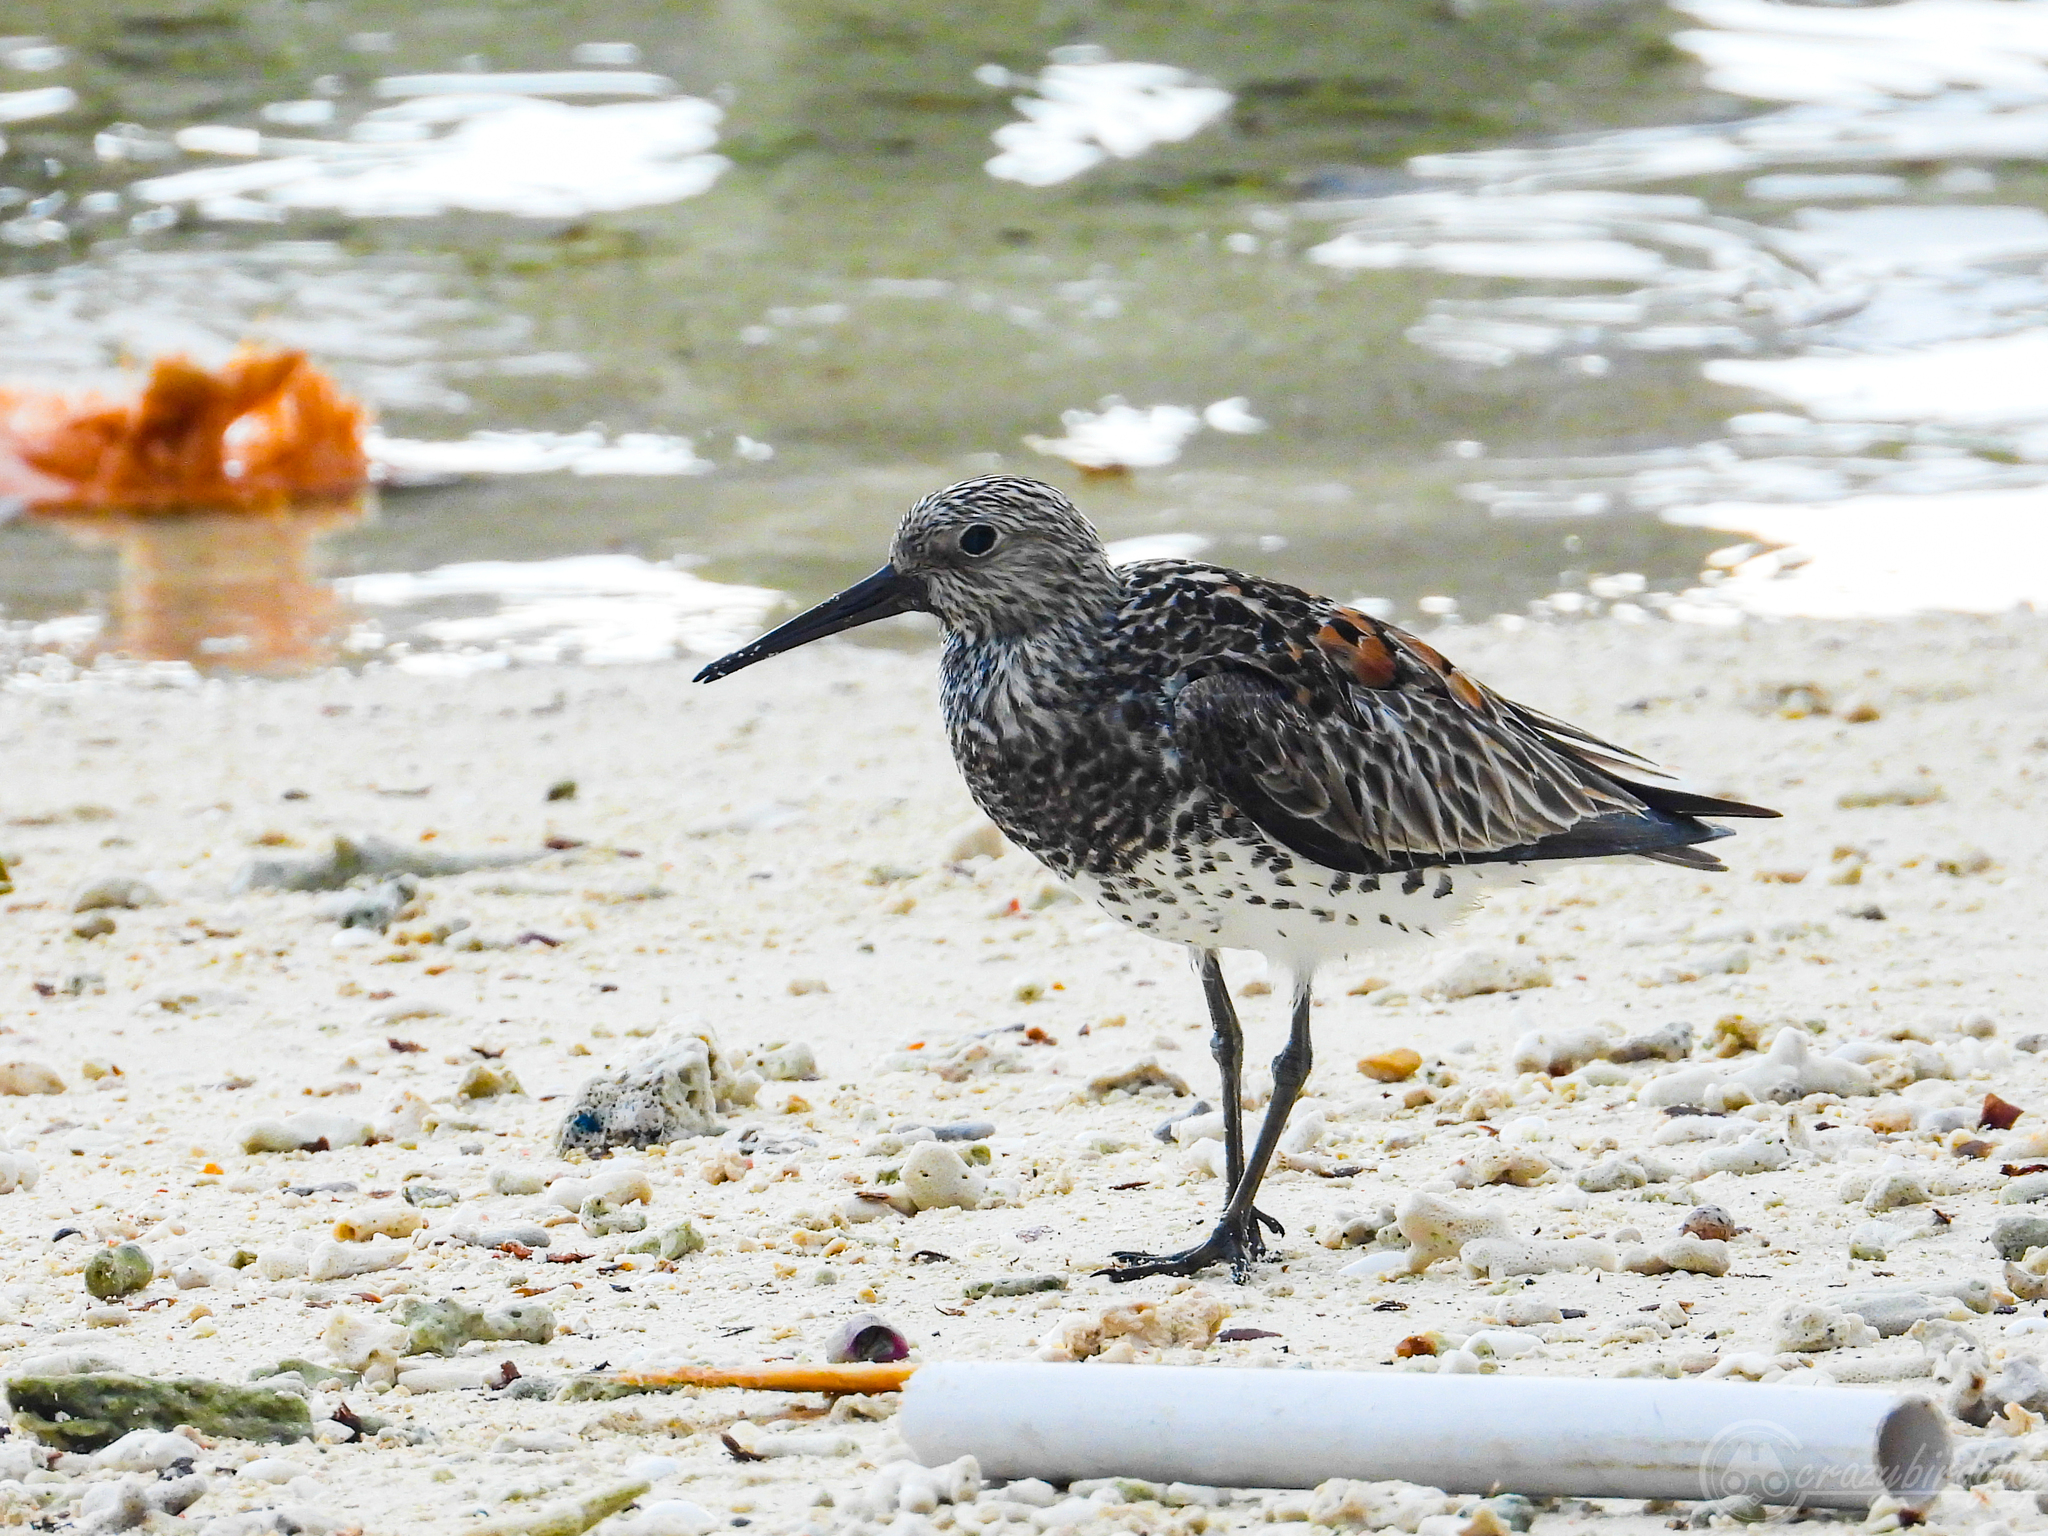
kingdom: Animalia
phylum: Chordata
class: Aves
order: Charadriiformes
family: Scolopacidae
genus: Calidris
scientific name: Calidris tenuirostris
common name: Great knot
